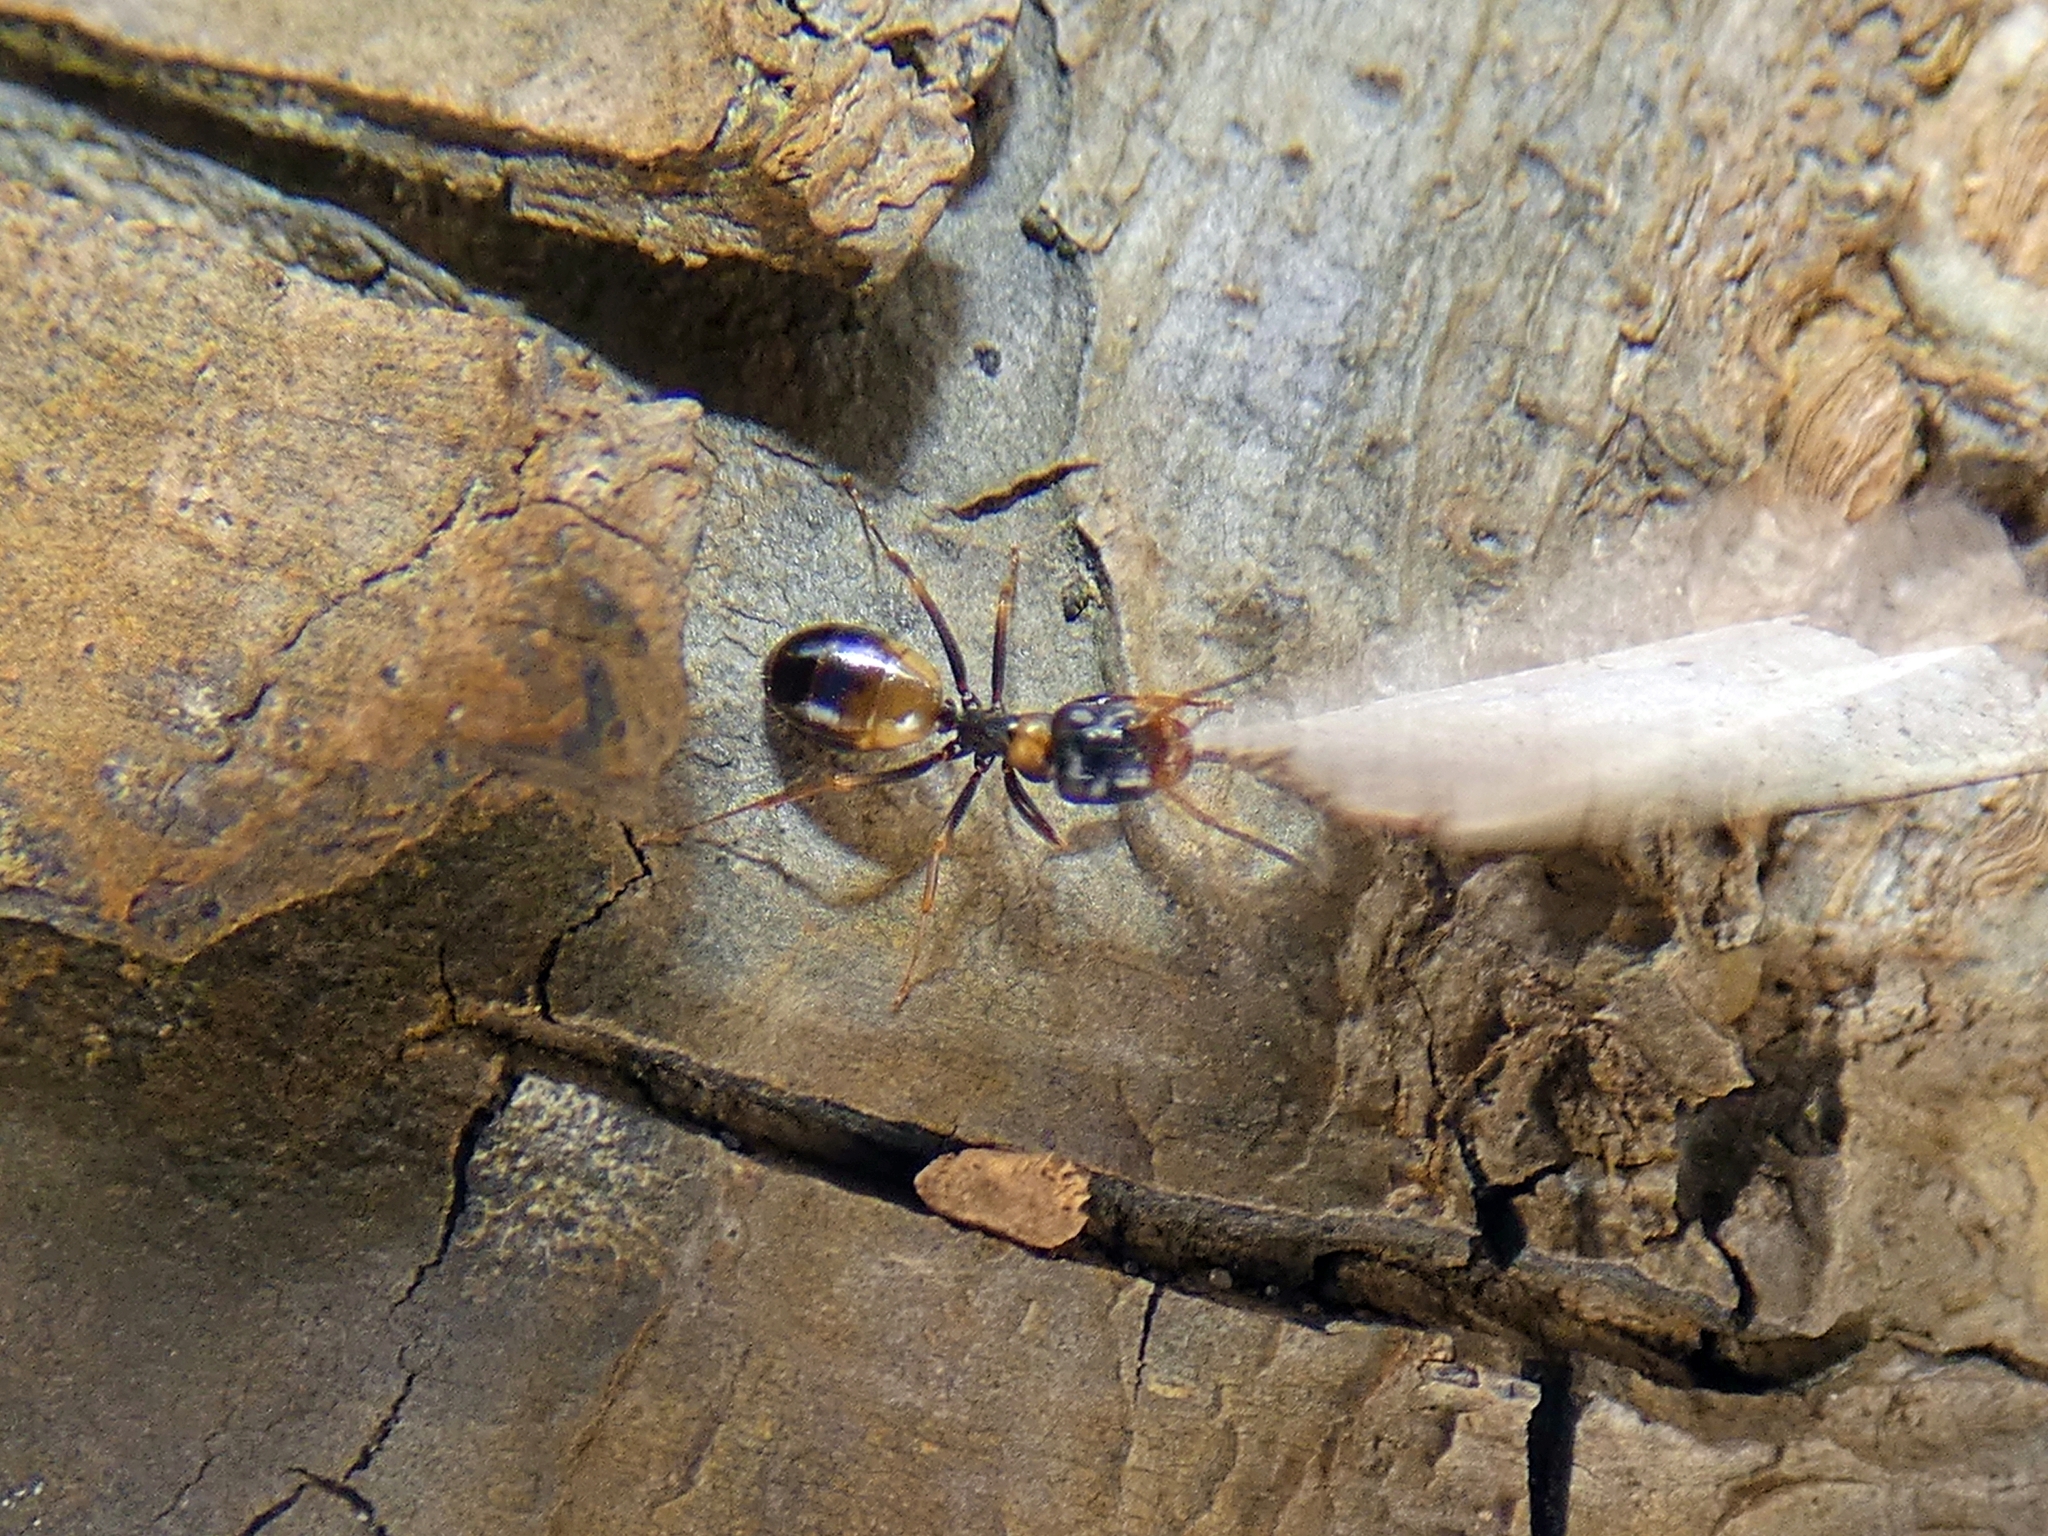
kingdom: Animalia
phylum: Arthropoda
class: Insecta
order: Hymenoptera
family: Formicidae
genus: Opisthopsis
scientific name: Opisthopsis respiciens
